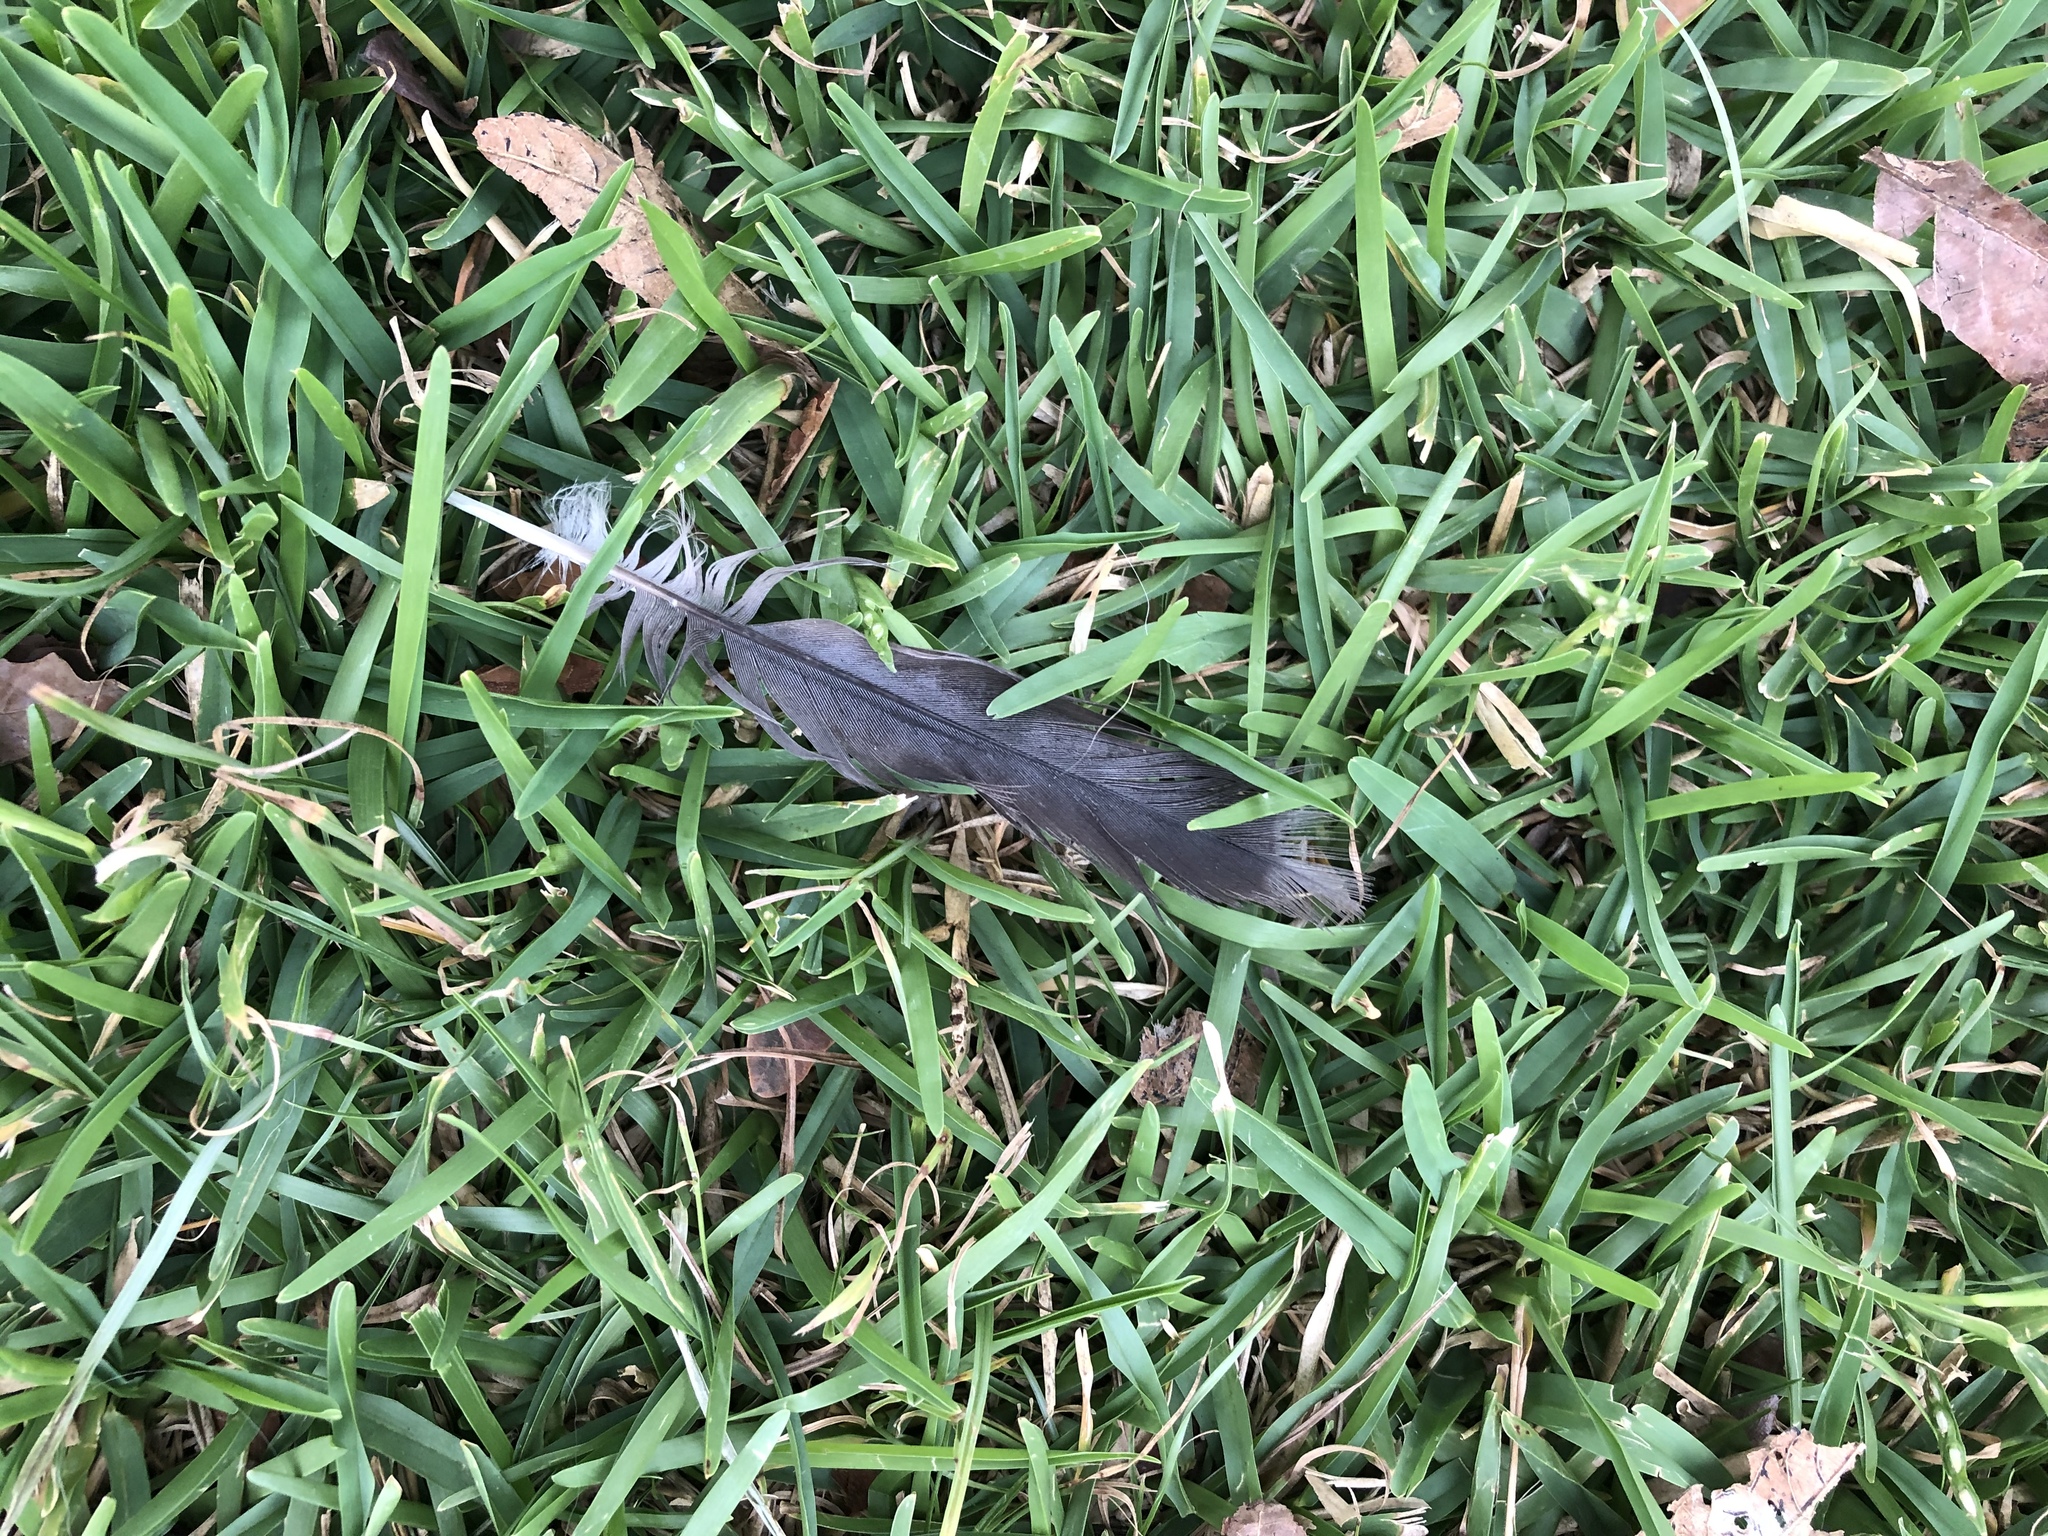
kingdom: Animalia
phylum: Chordata
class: Aves
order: Columbiformes
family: Columbidae
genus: Zenaida
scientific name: Zenaida meloda
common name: West peruvian dove
